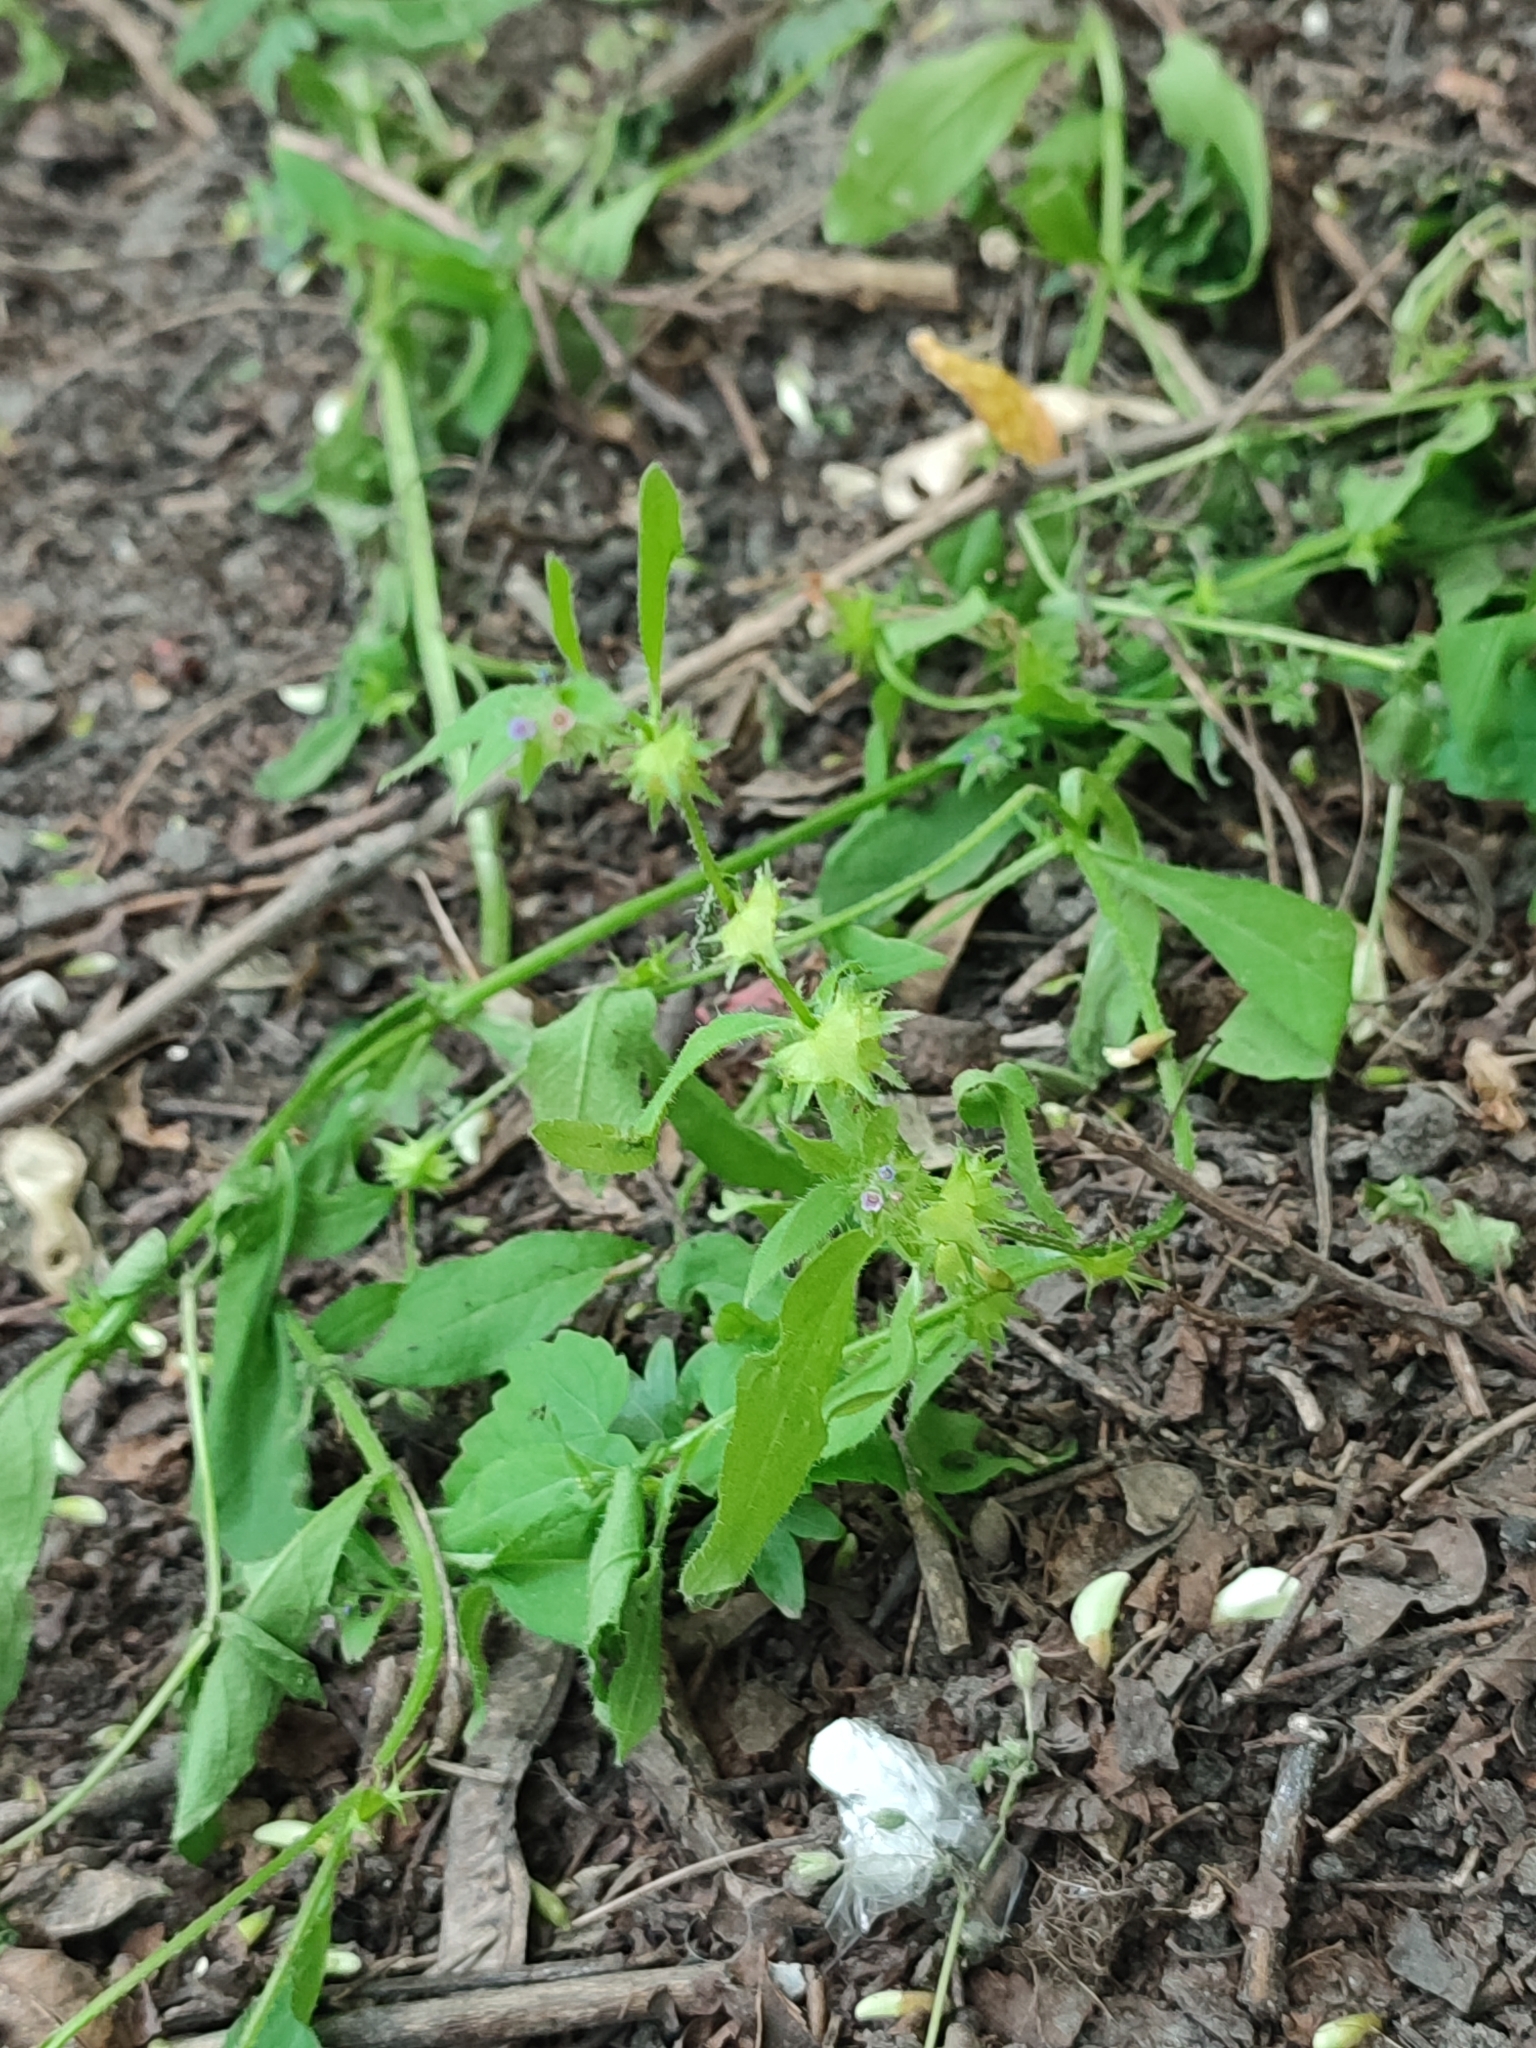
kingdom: Plantae
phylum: Tracheophyta
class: Magnoliopsida
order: Boraginales
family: Boraginaceae
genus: Asperugo
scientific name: Asperugo procumbens
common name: Madwort
